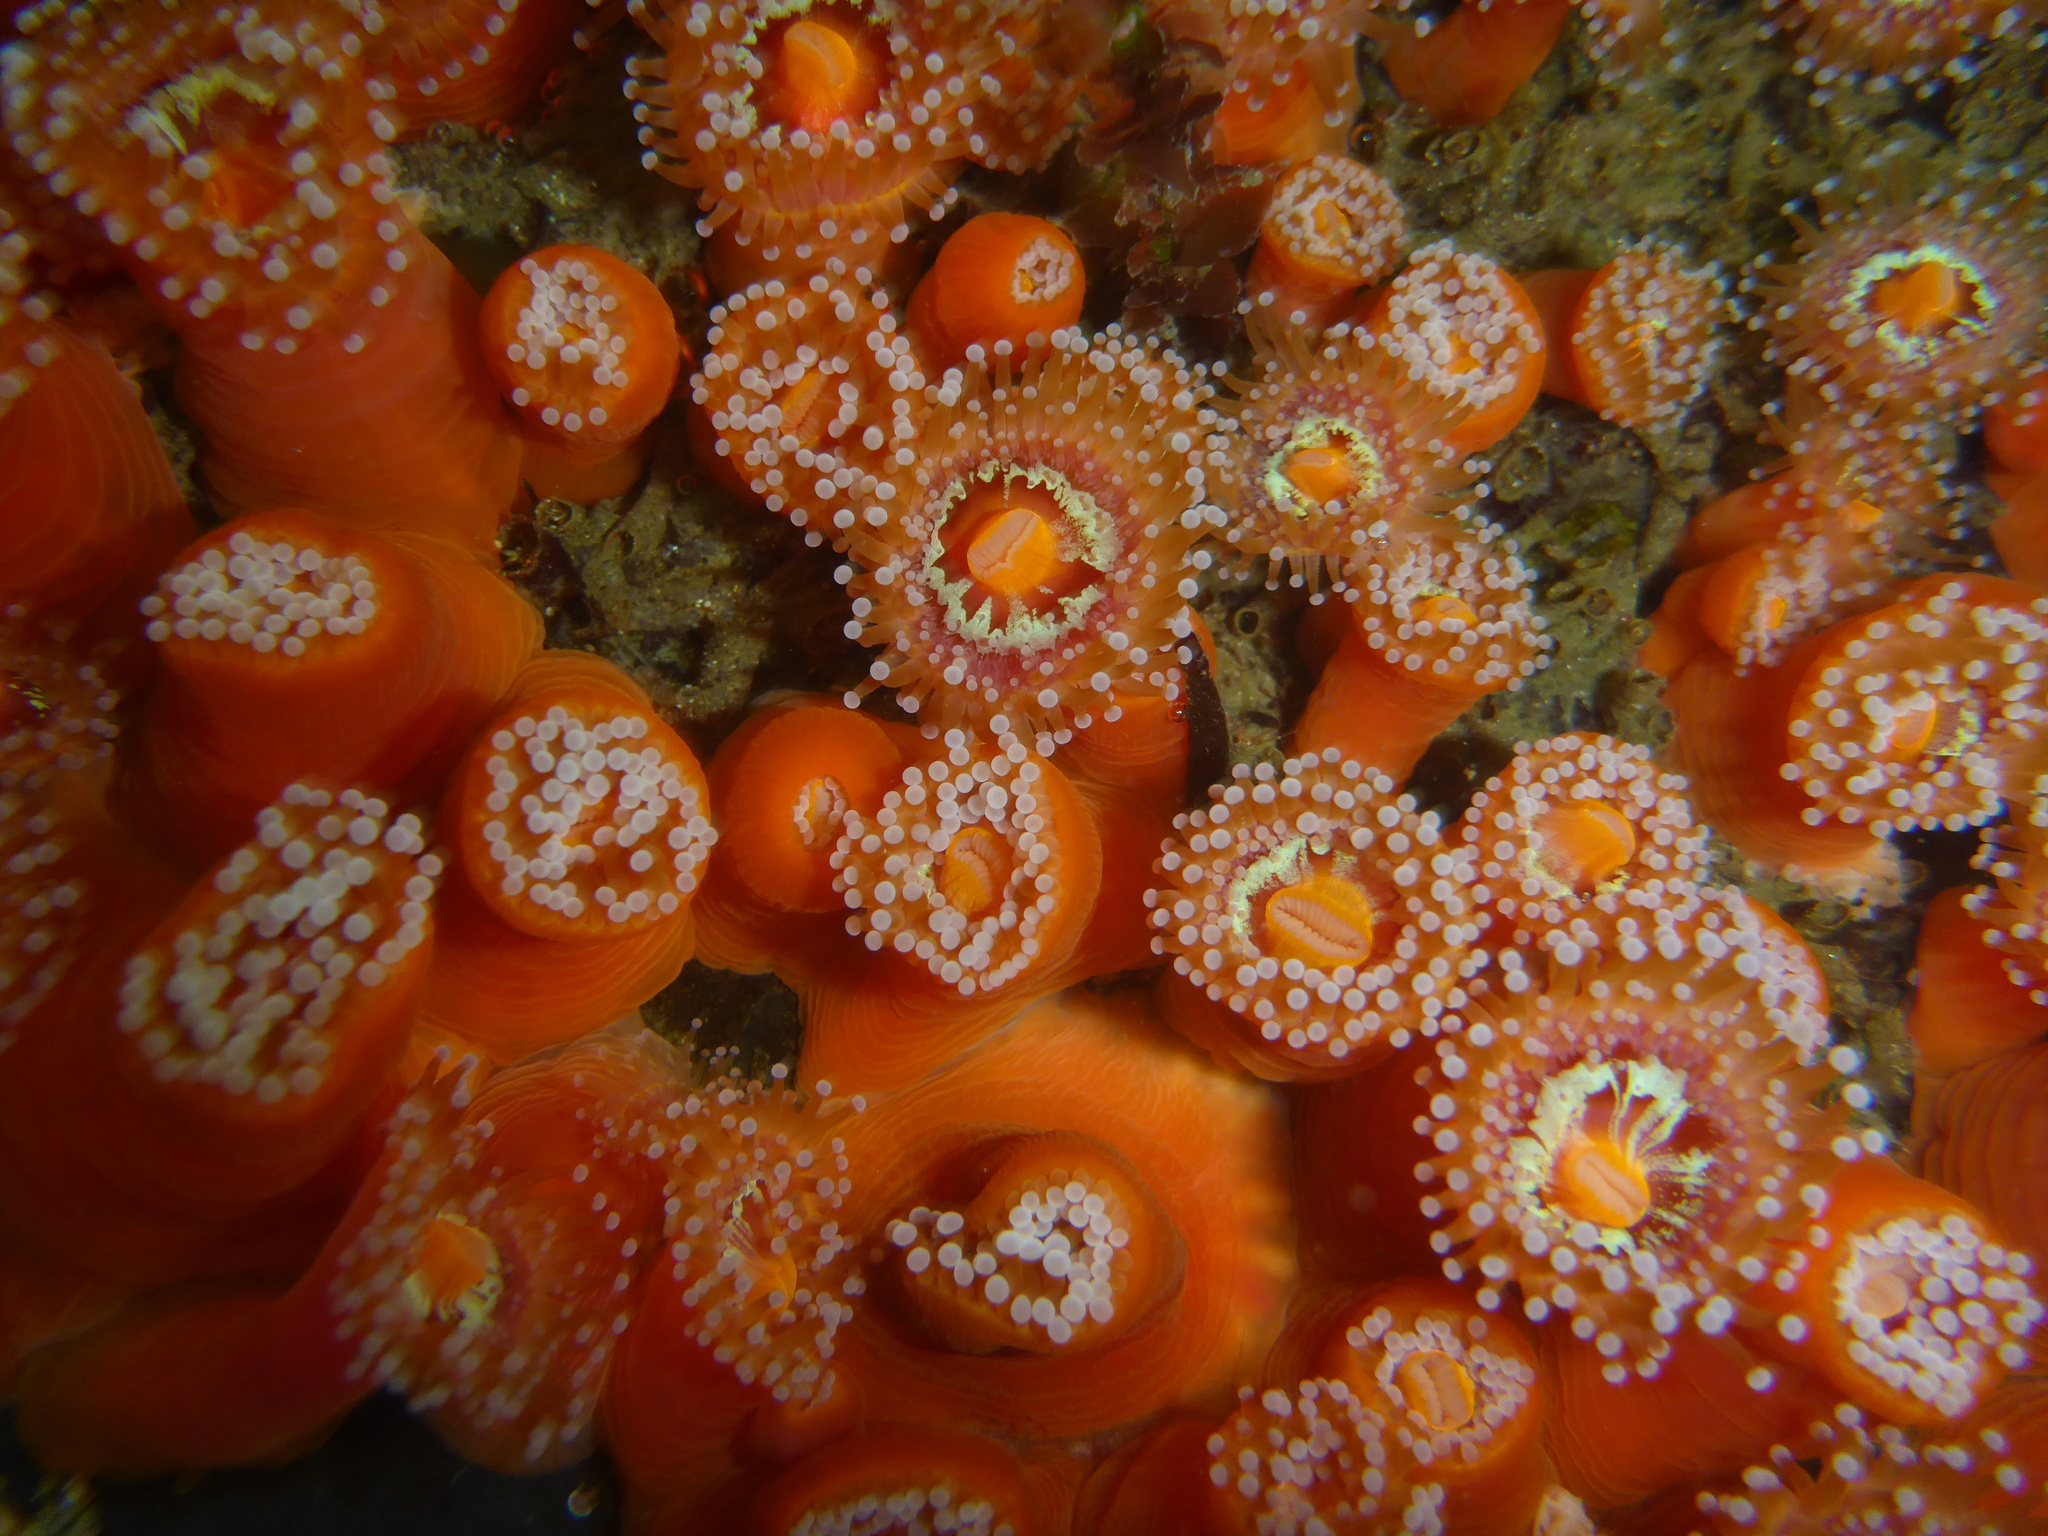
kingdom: Animalia
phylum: Cnidaria
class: Anthozoa
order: Corallimorpharia
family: Corallimorphidae
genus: Corynactis
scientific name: Corynactis californica
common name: Strawberry corallimorpharian
